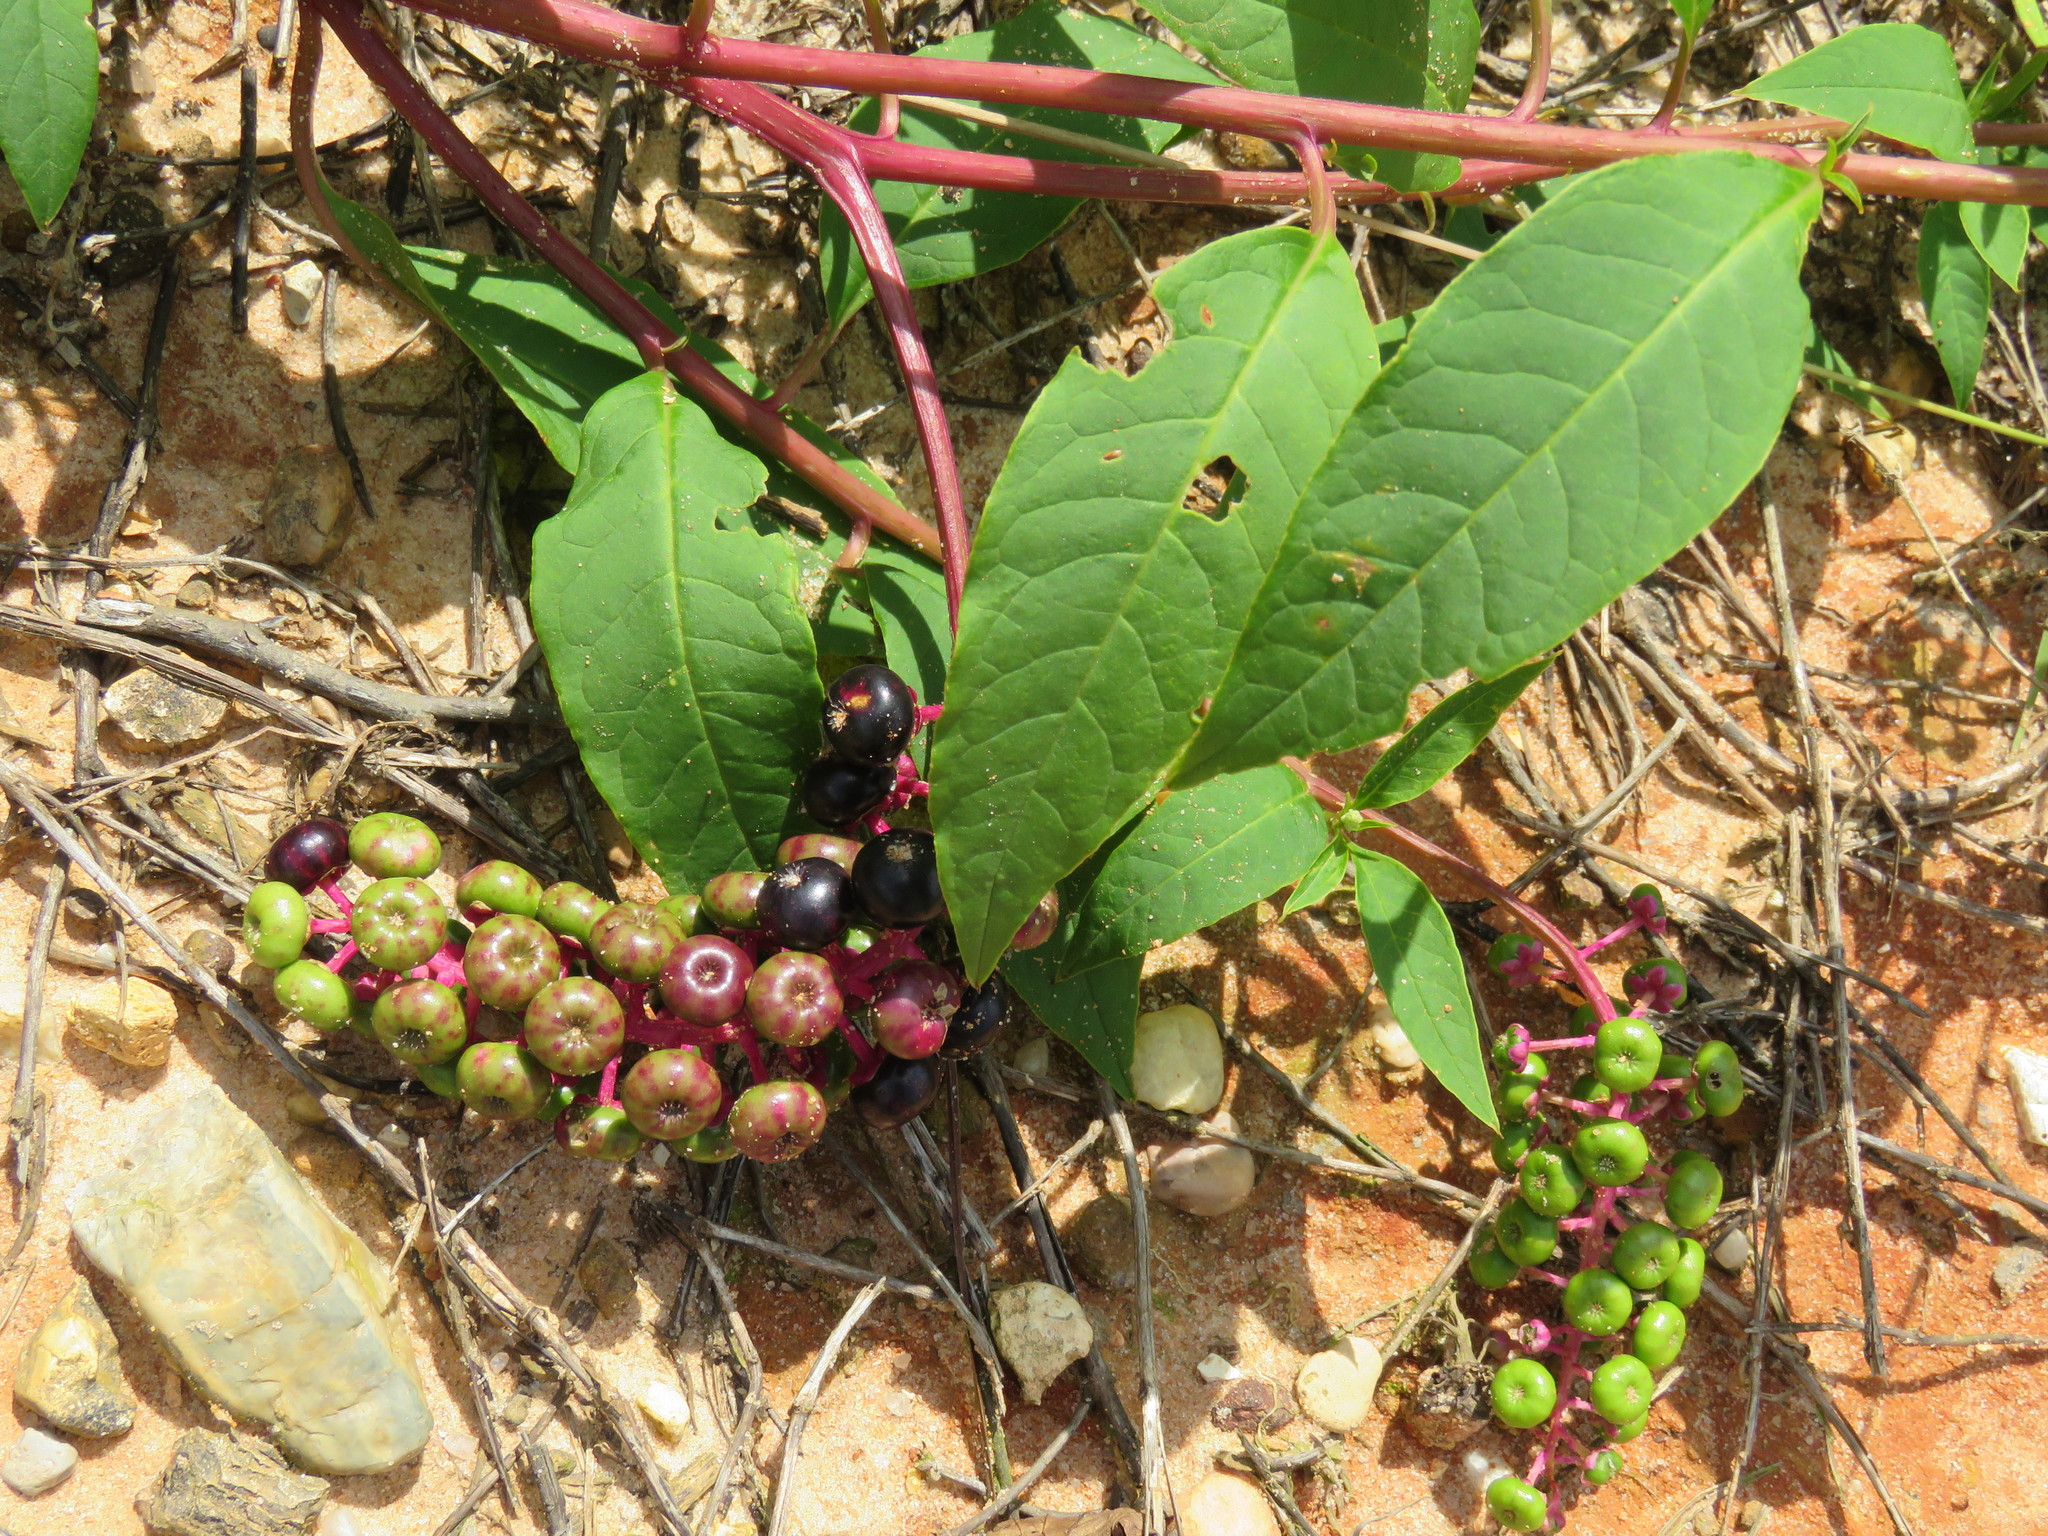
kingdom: Plantae
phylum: Tracheophyta
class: Magnoliopsida
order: Caryophyllales
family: Phytolaccaceae
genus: Phytolacca
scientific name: Phytolacca americana
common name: American pokeweed
